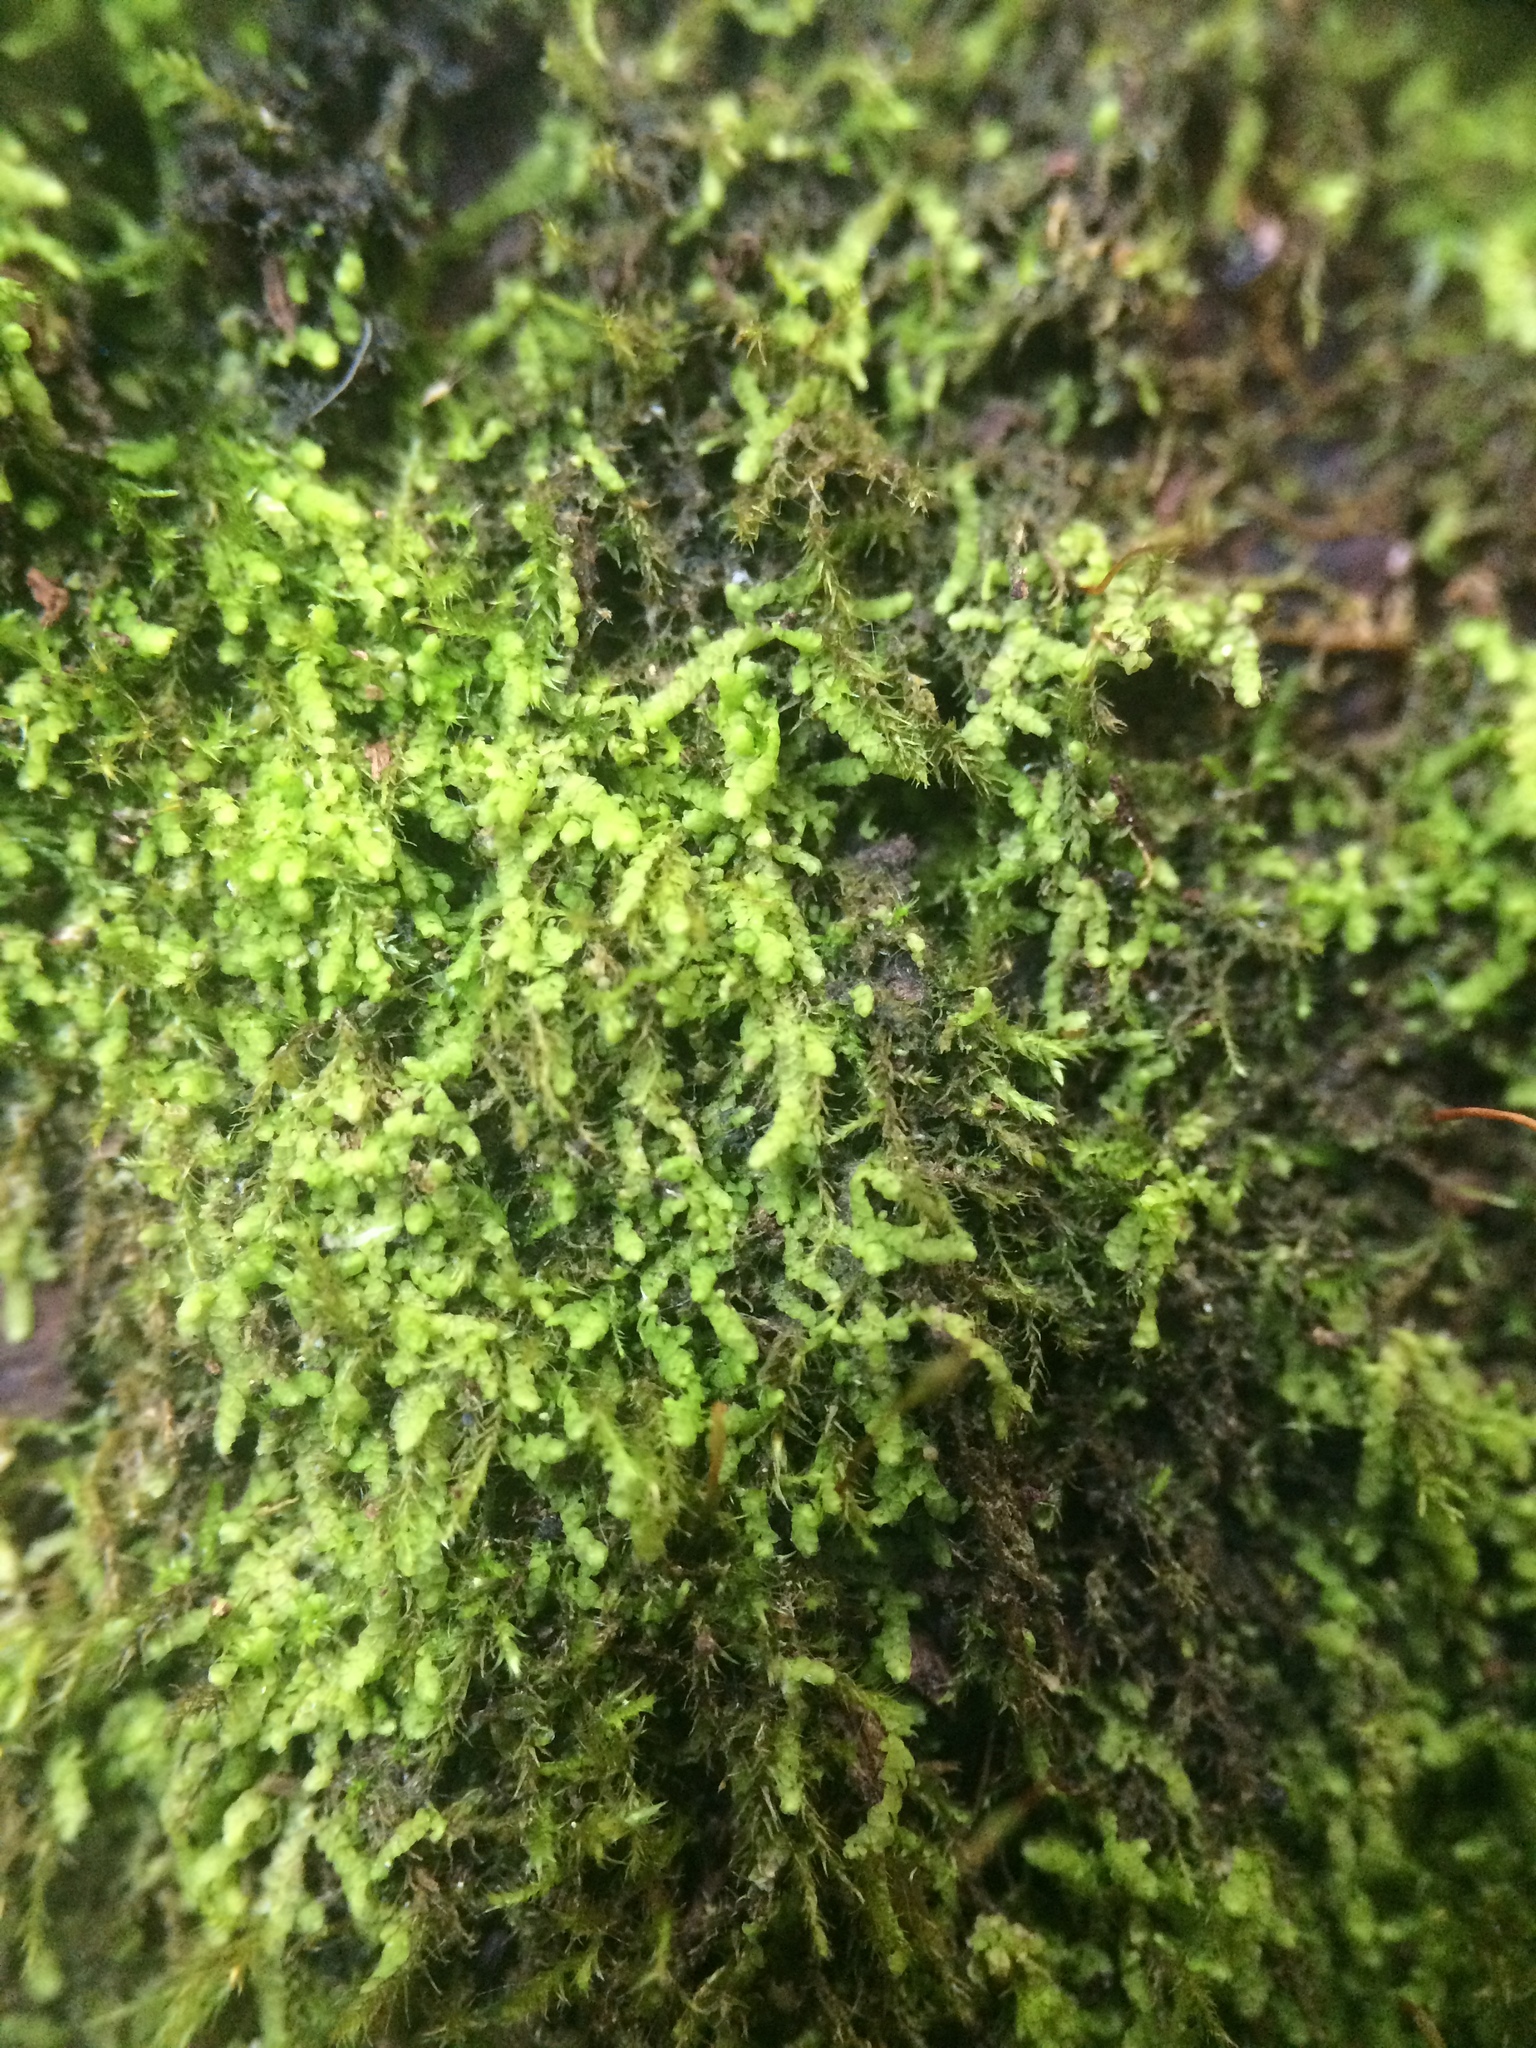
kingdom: Plantae
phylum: Marchantiophyta
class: Jungermanniopsida
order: Porellales
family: Lejeuneaceae
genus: Cololejeunea
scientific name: Cololejeunea biddlecomiae
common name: Biddlecome s pouncewort
